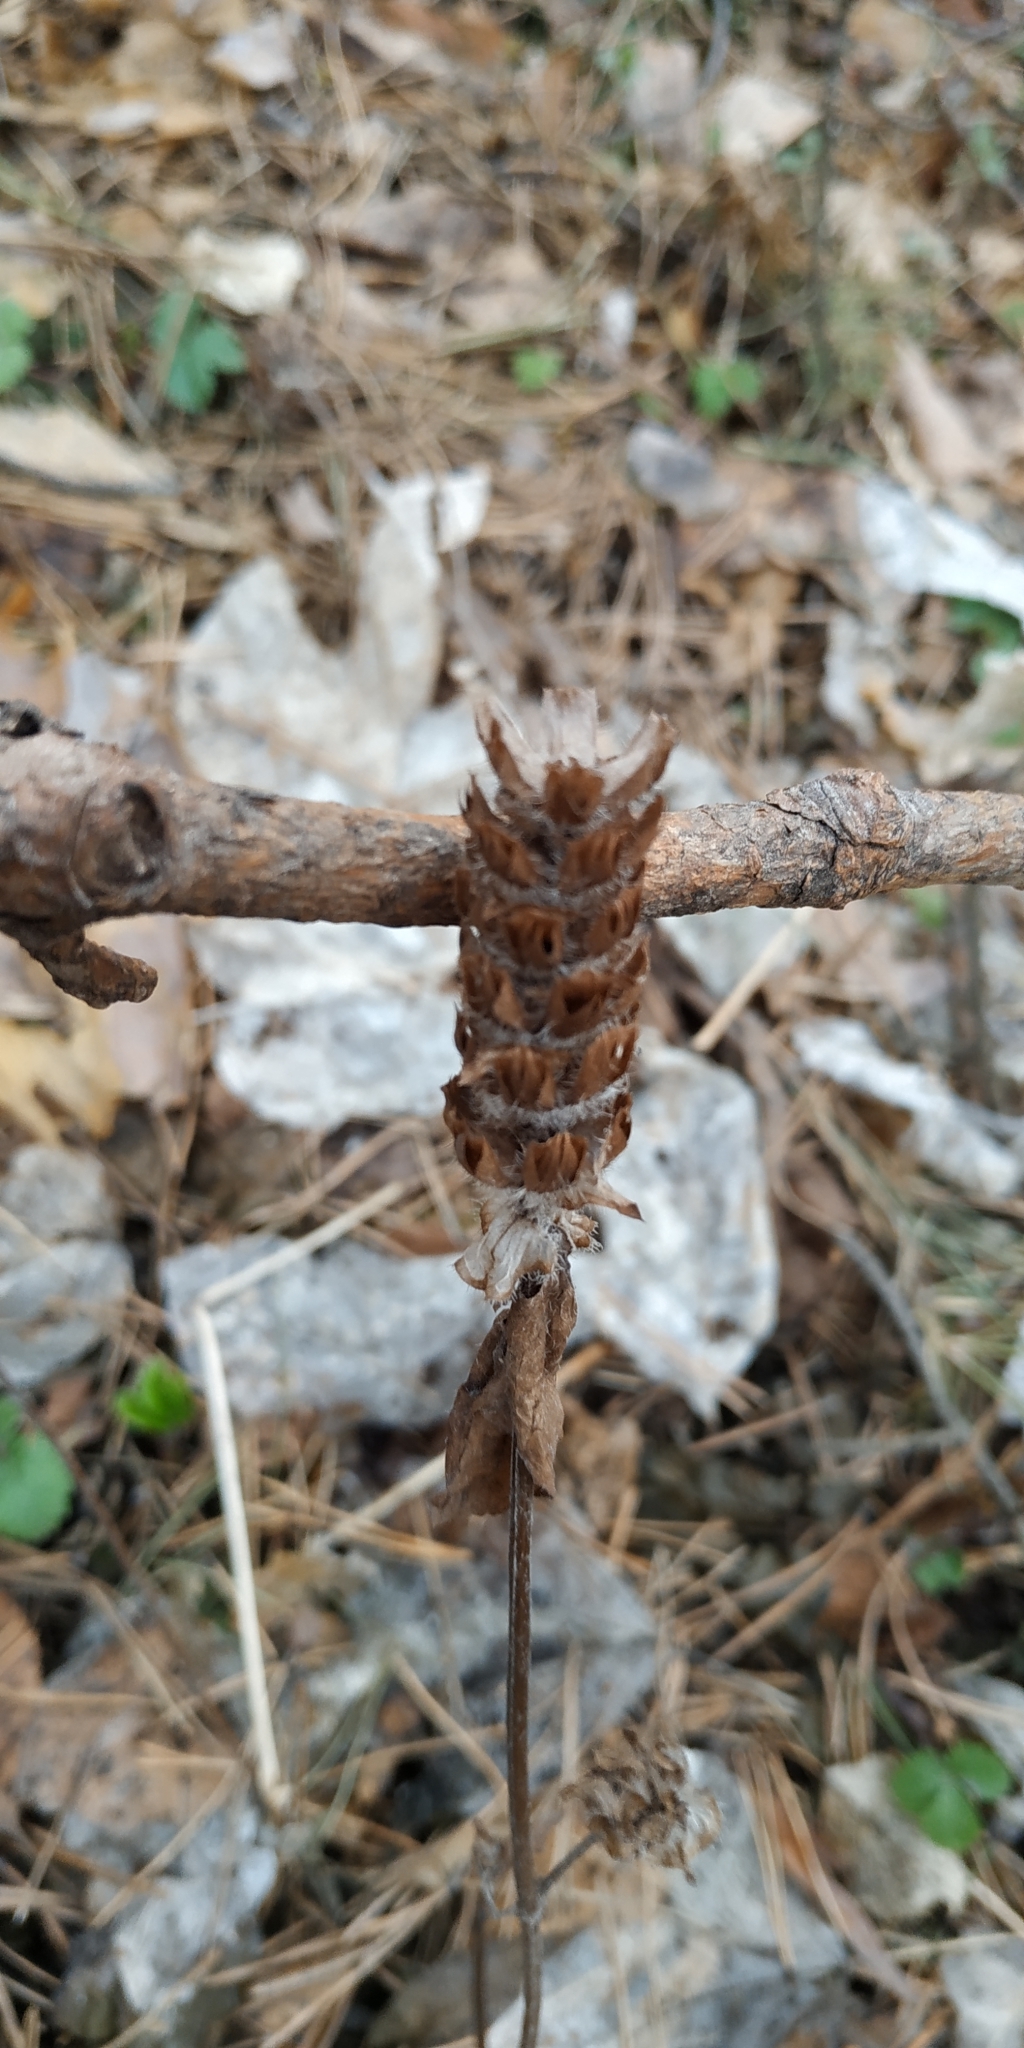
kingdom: Plantae
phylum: Tracheophyta
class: Magnoliopsida
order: Lamiales
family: Lamiaceae
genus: Prunella
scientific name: Prunella vulgaris
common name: Heal-all
